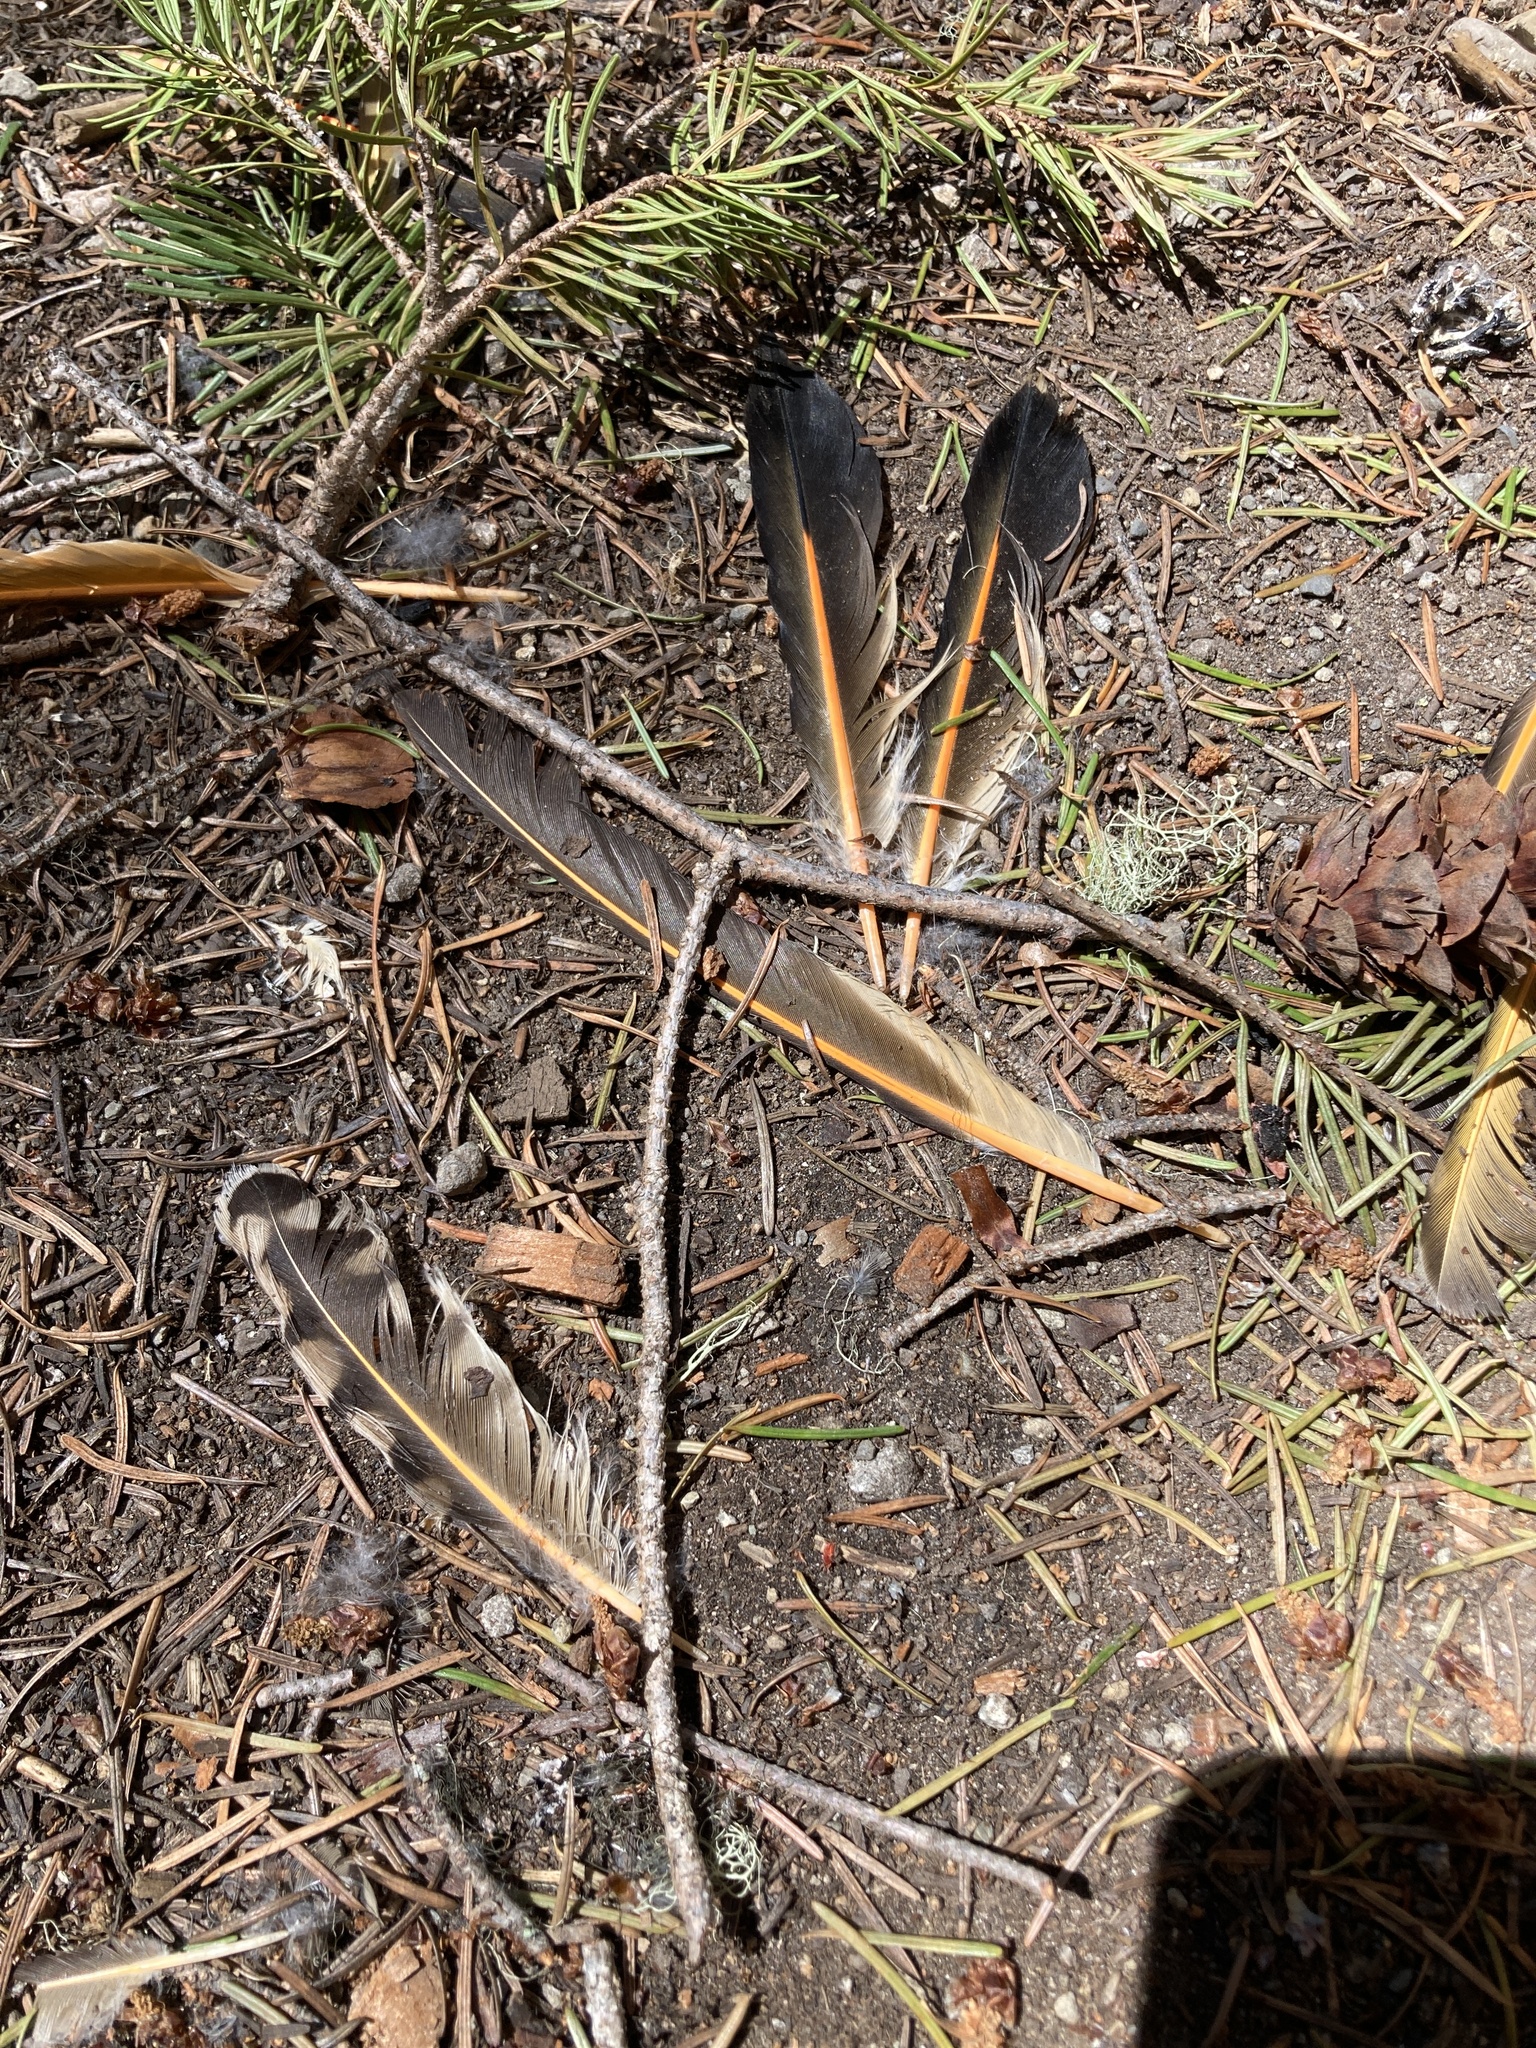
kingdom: Animalia
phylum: Chordata
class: Aves
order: Piciformes
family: Picidae
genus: Colaptes
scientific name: Colaptes auratus
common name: Northern flicker
